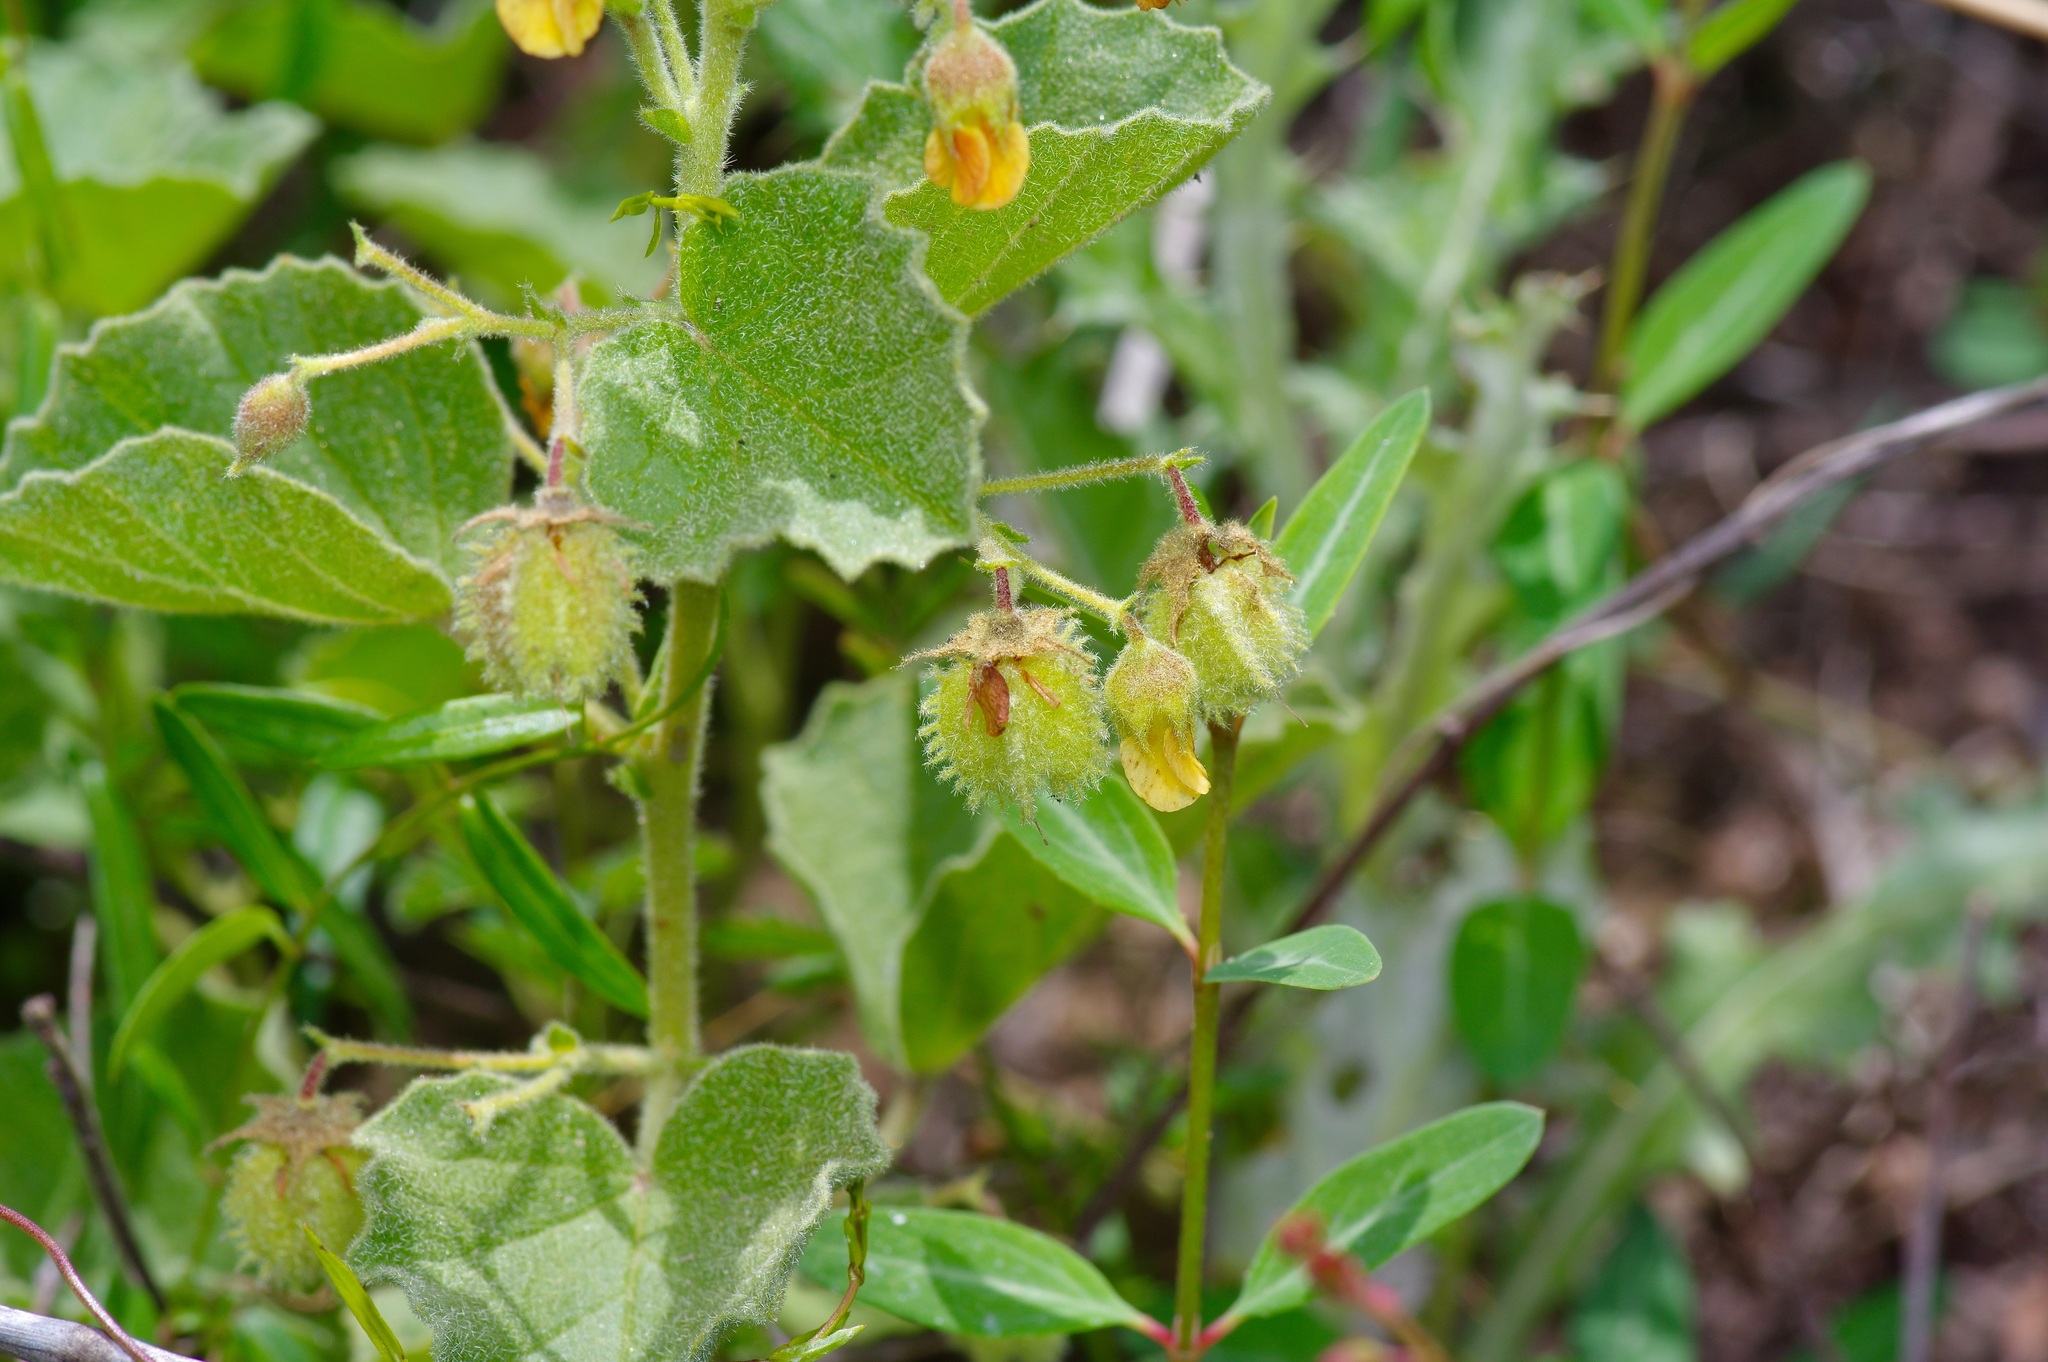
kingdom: Plantae
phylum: Tracheophyta
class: Magnoliopsida
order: Malvales
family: Malvaceae
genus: Hermannia
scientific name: Hermannia texana
